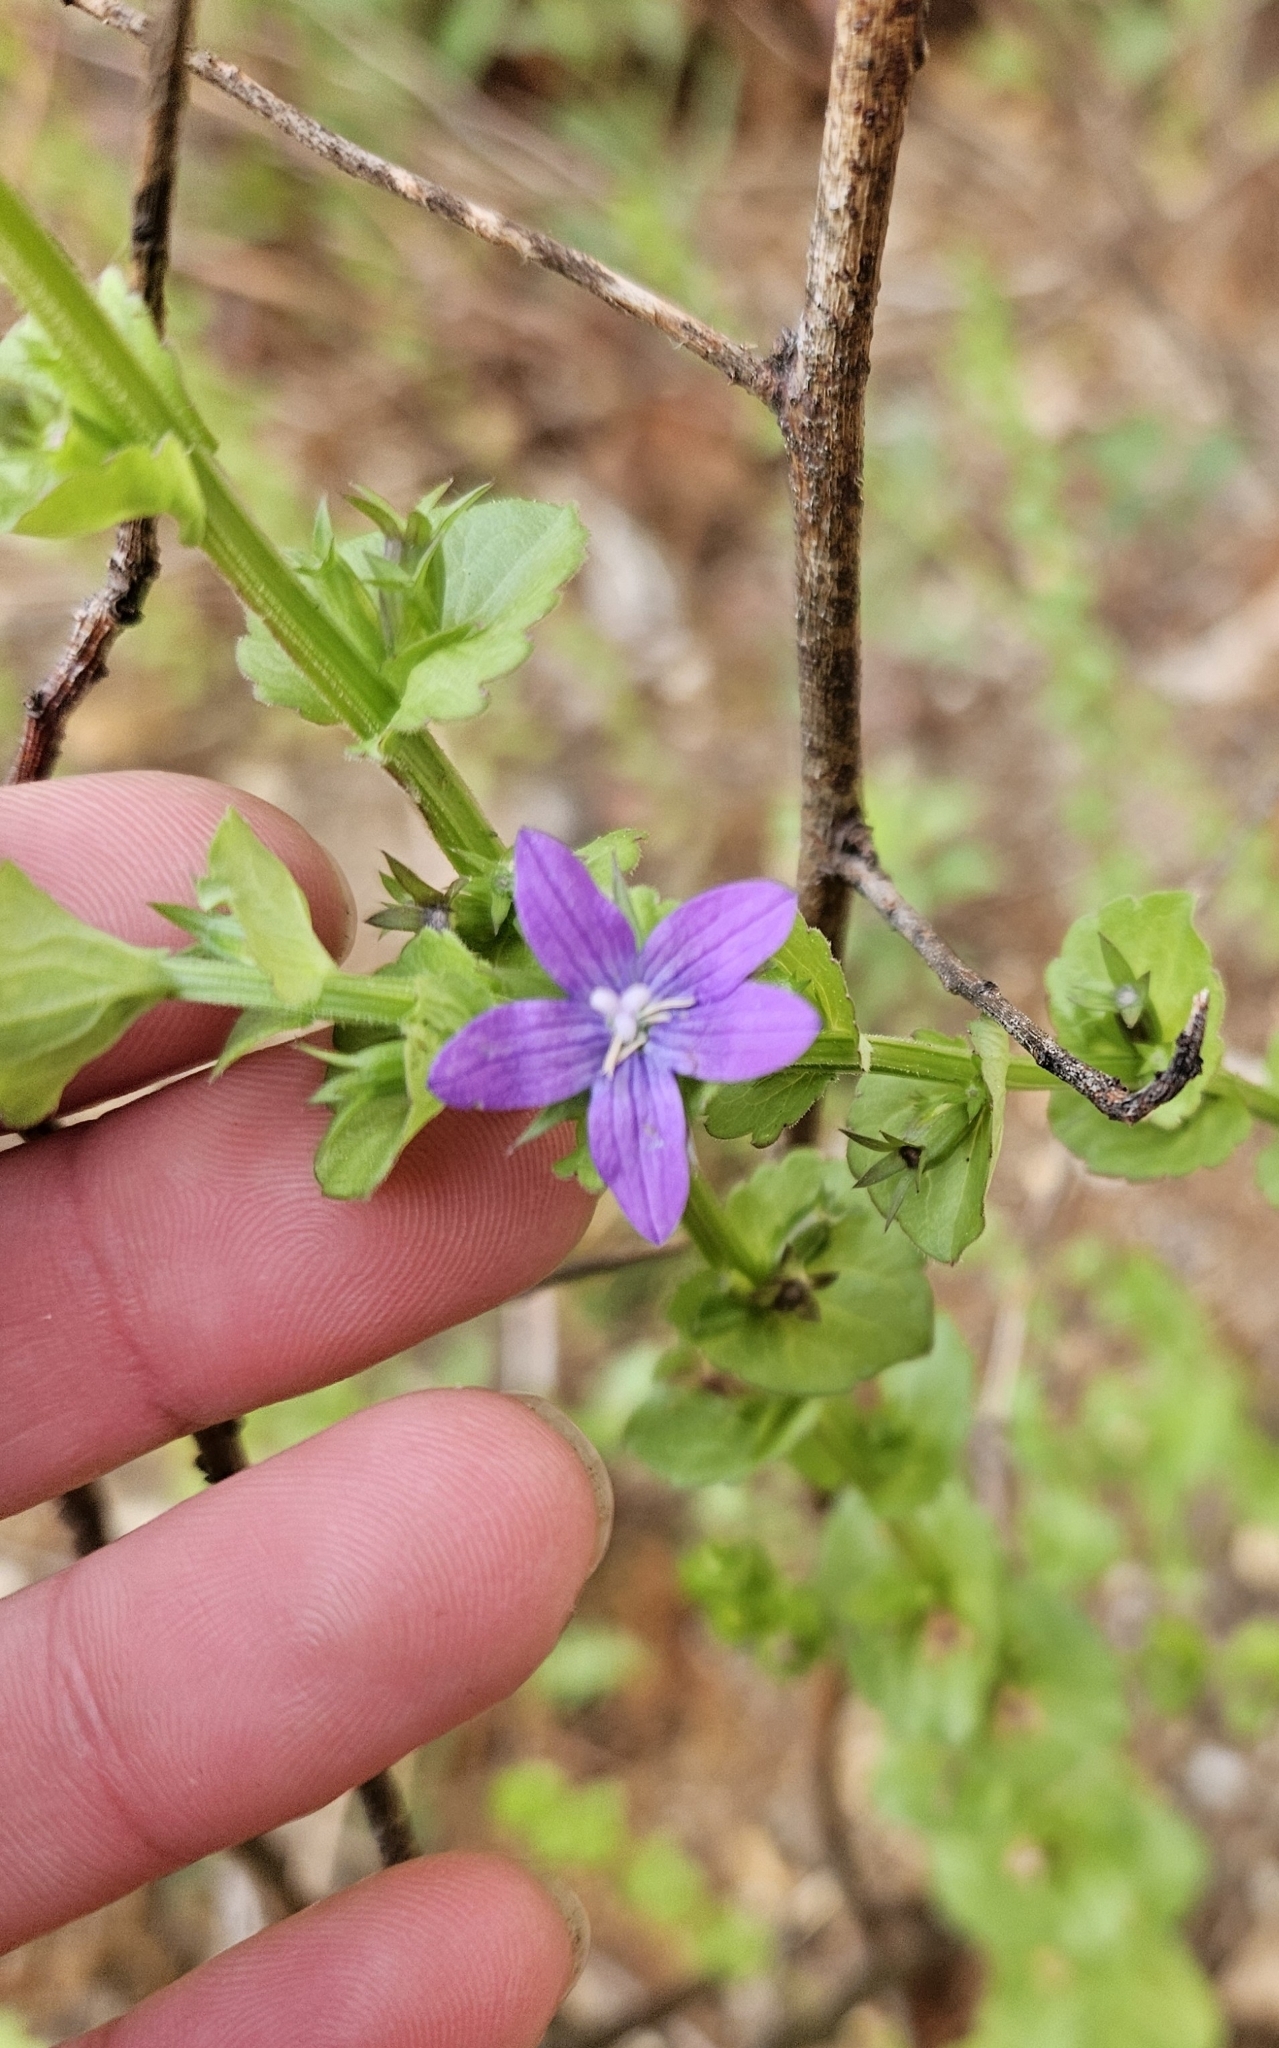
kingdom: Plantae
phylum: Tracheophyta
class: Magnoliopsida
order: Asterales
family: Campanulaceae
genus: Triodanis
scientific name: Triodanis perfoliata
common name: Clasping venus' looking-glass
